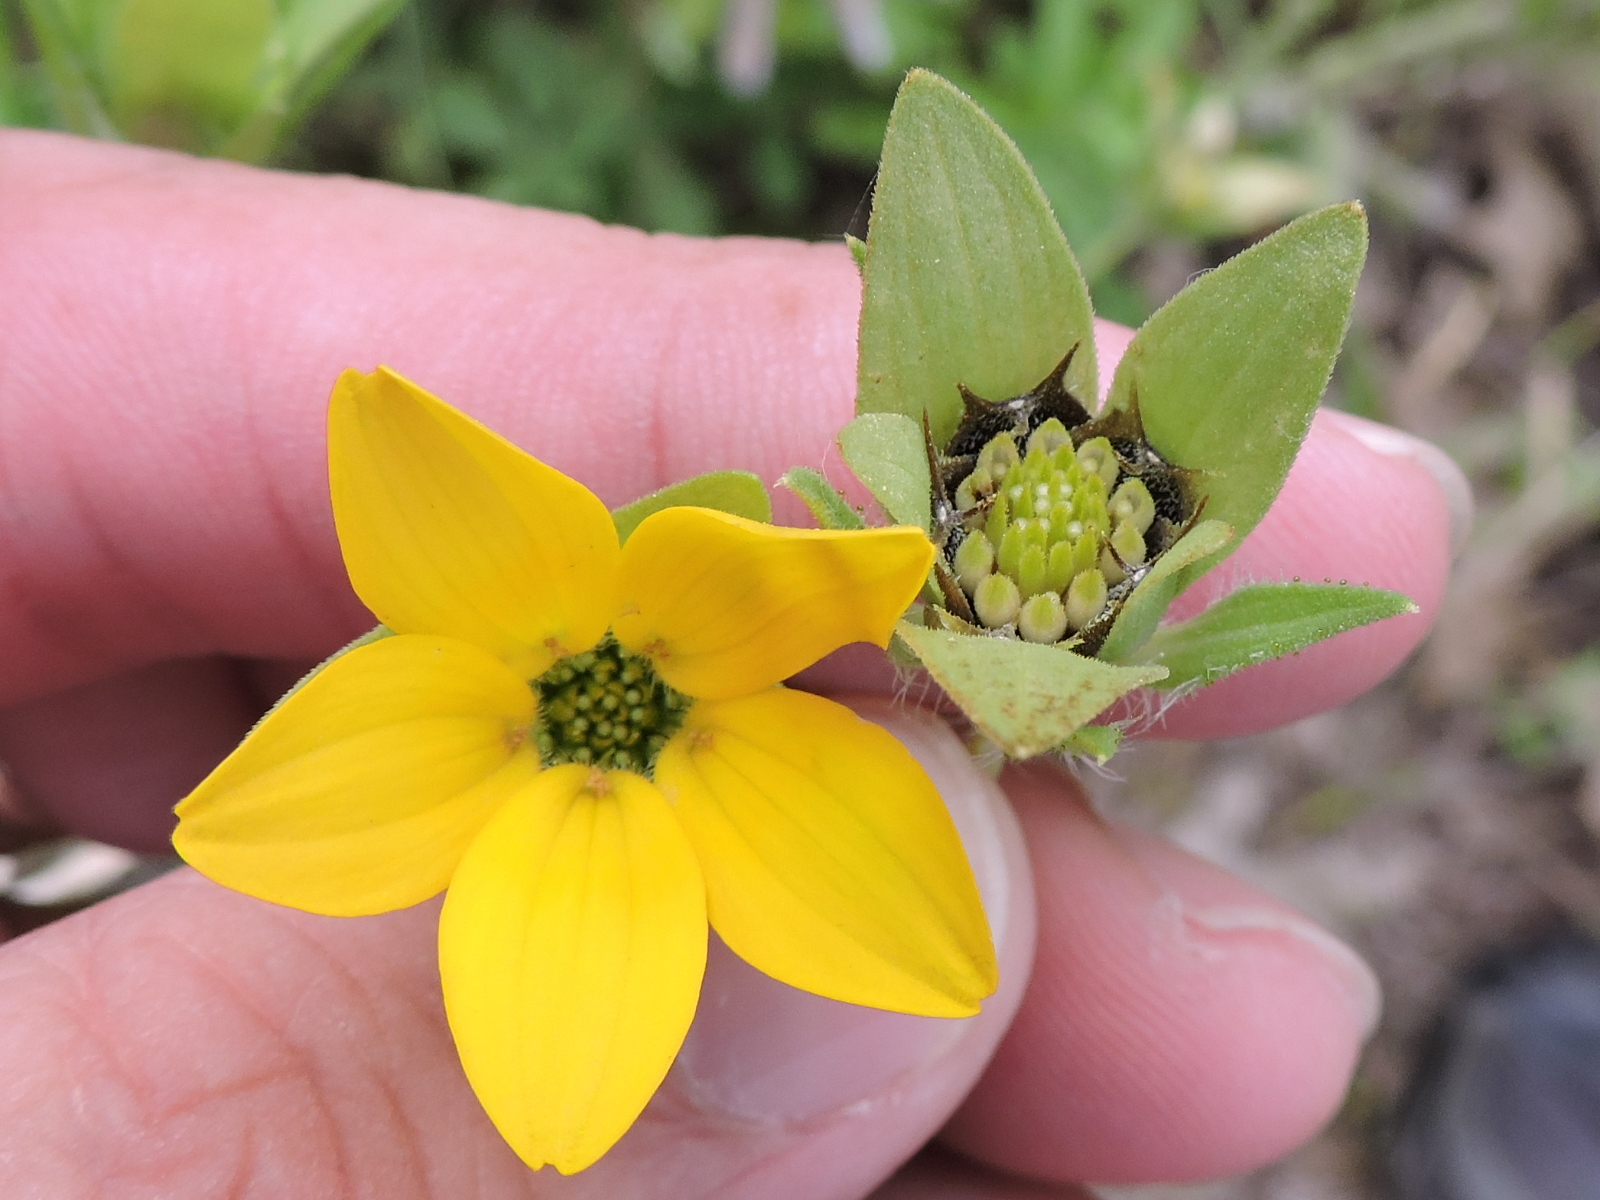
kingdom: Plantae
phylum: Tracheophyta
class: Magnoliopsida
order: Asterales
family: Asteraceae
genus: Lindheimera
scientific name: Lindheimera texana
